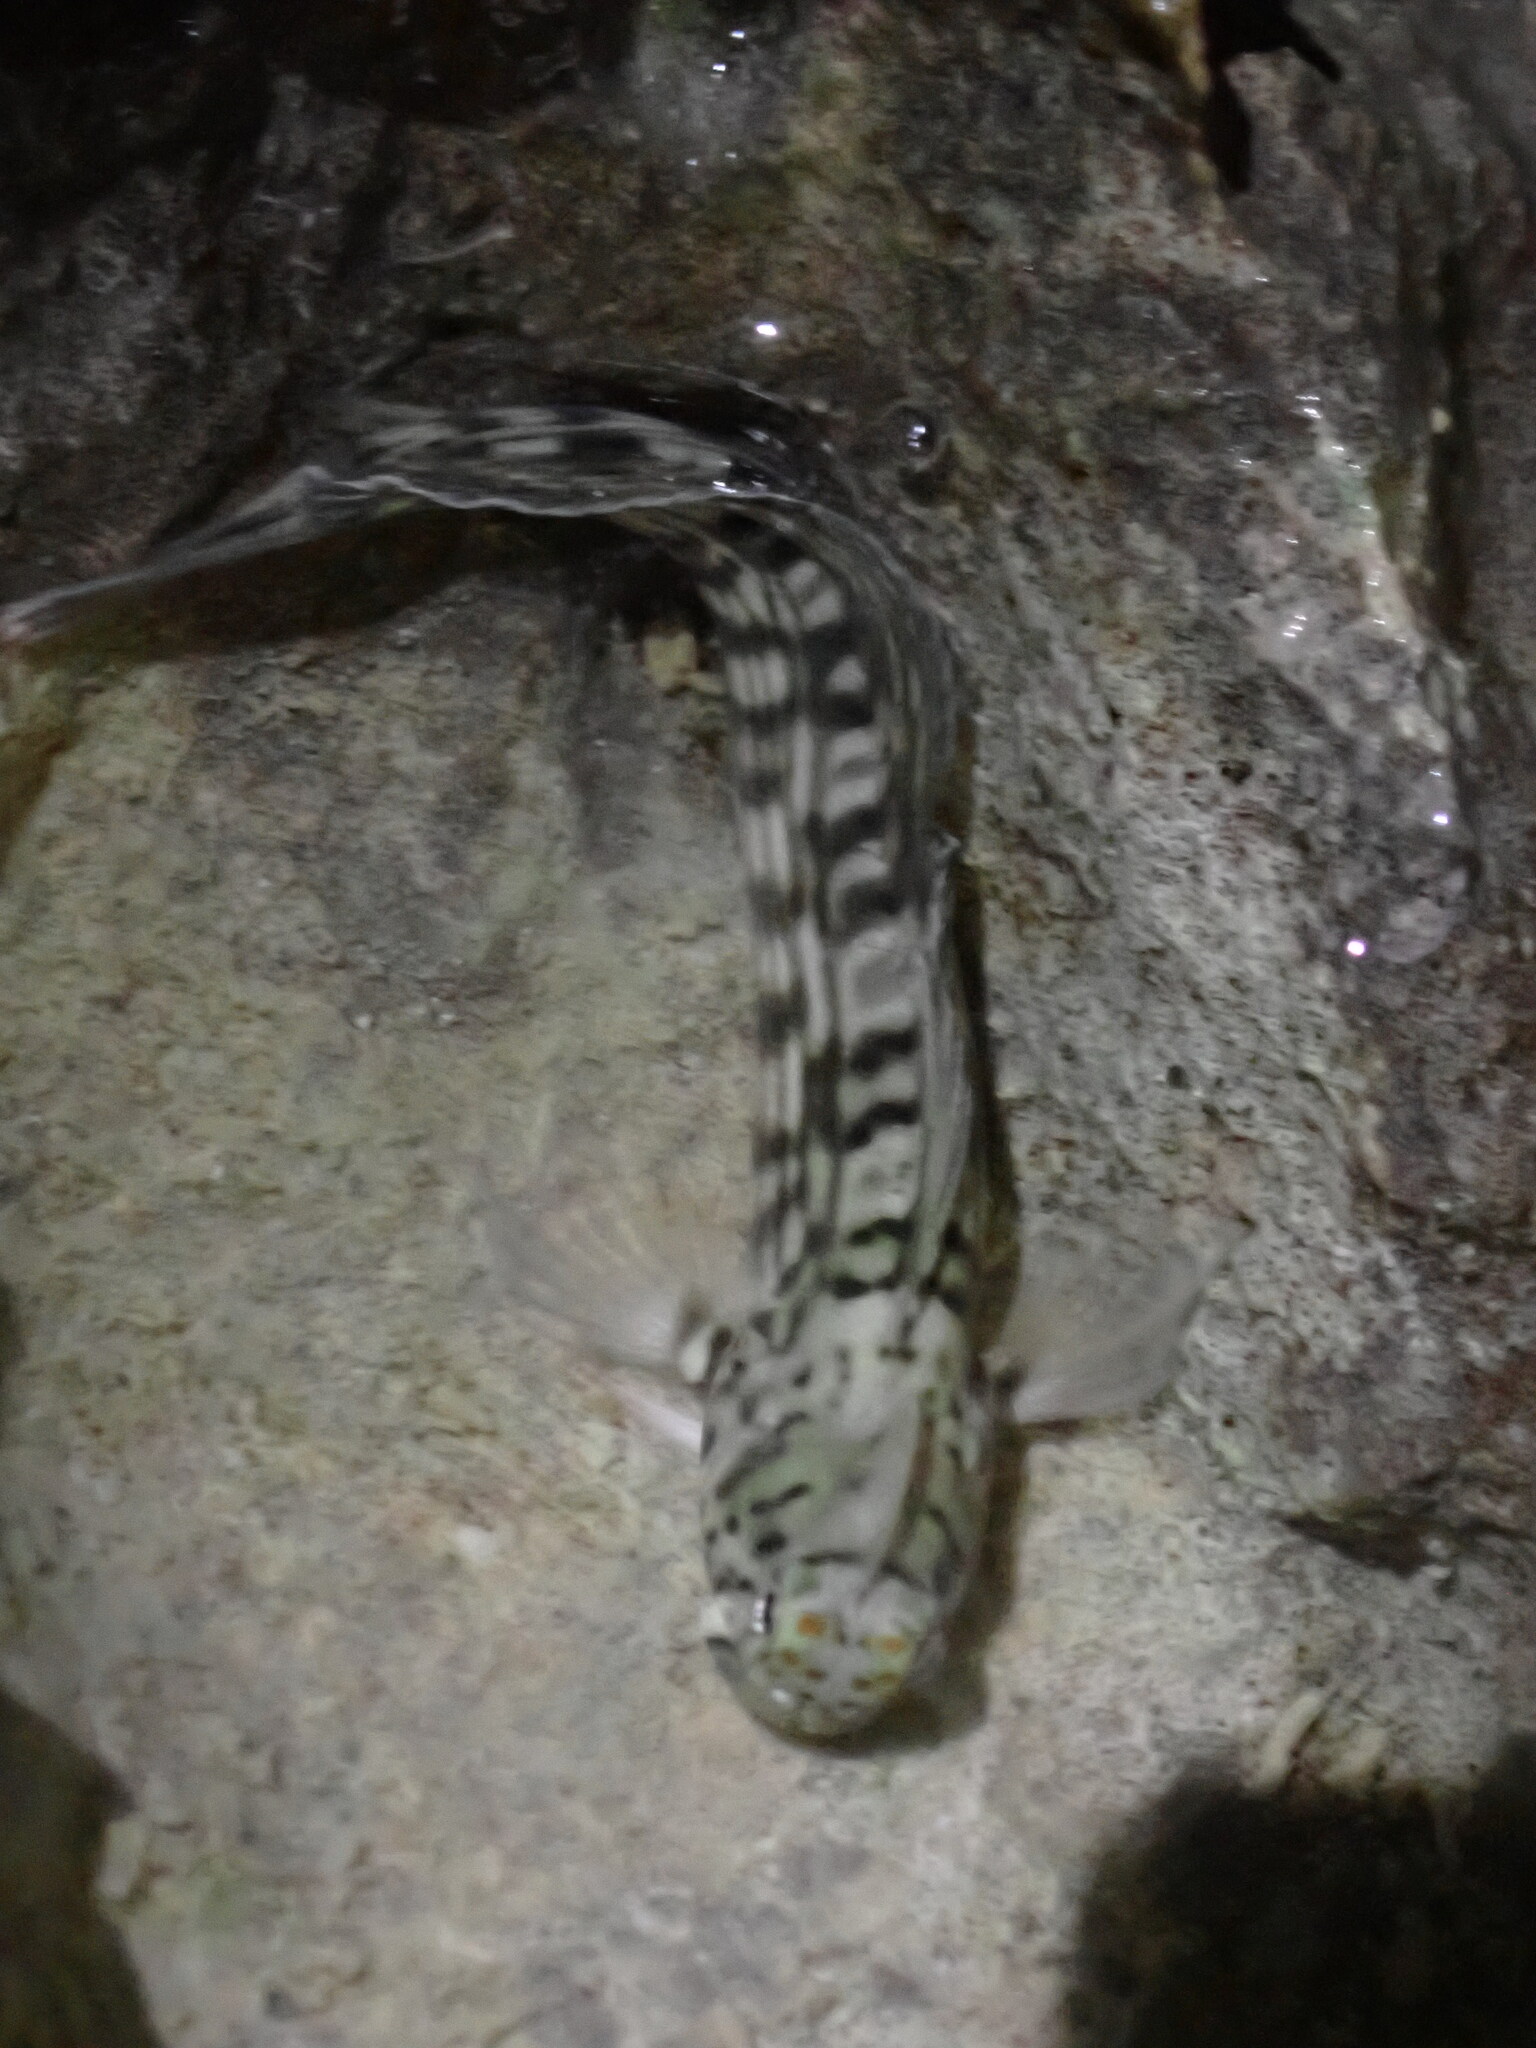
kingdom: Animalia
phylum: Chordata
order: Perciformes
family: Blenniidae
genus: Istiblennius
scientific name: Istiblennius lineatus
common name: Black-lined blenny
